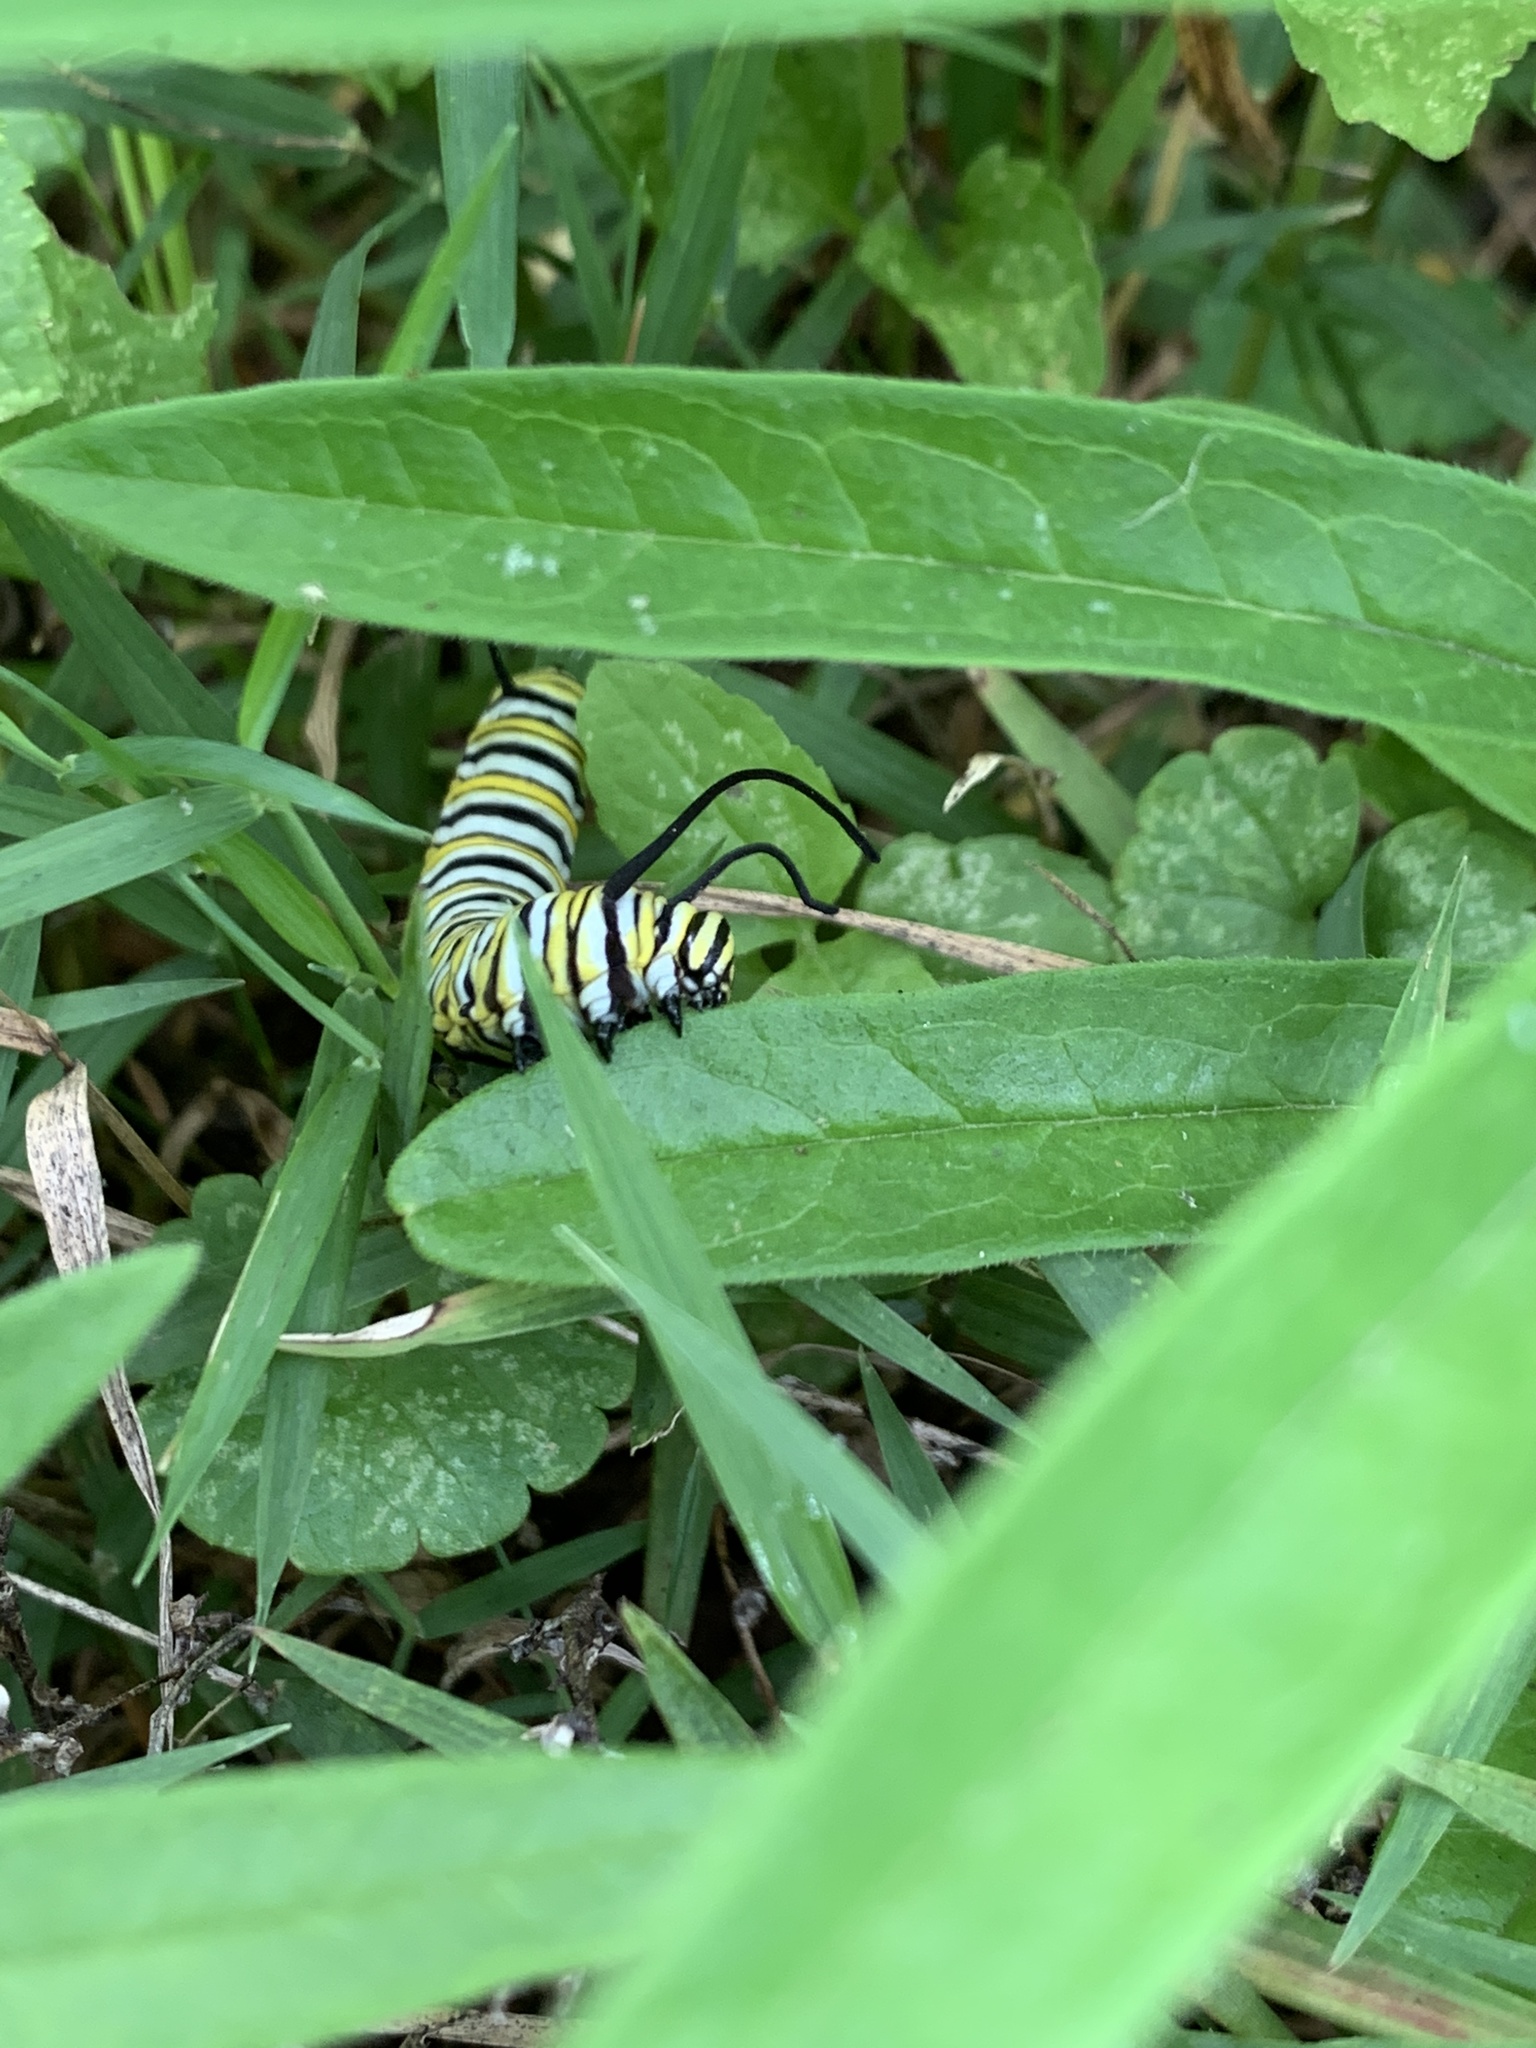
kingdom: Animalia
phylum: Arthropoda
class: Insecta
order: Lepidoptera
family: Nymphalidae
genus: Danaus
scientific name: Danaus plexippus
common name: Monarch
